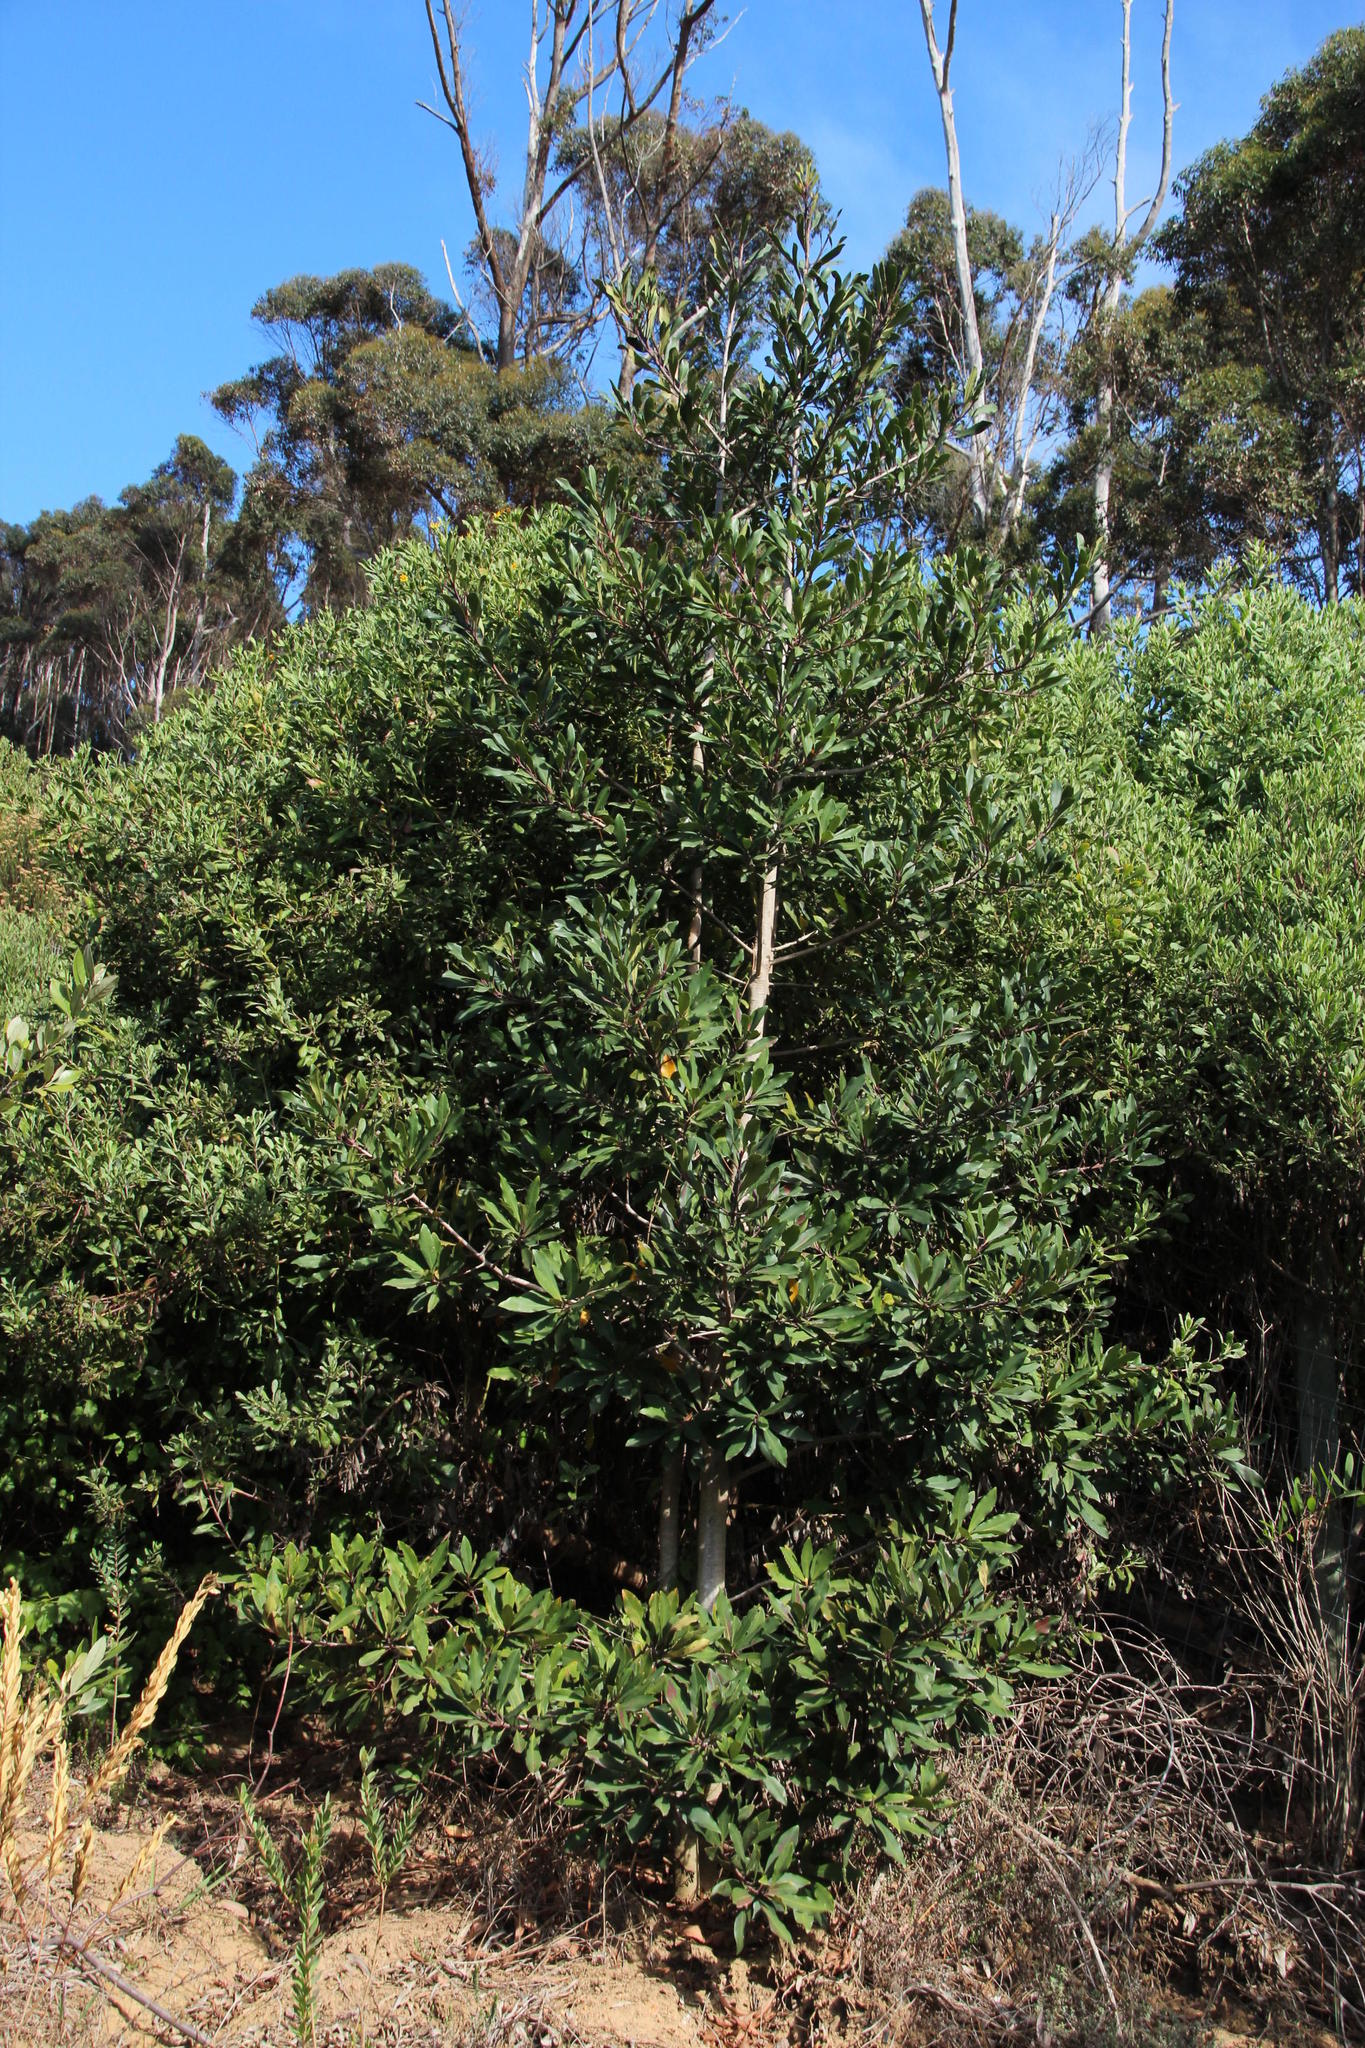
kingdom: Plantae
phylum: Tracheophyta
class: Magnoliopsida
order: Ericales
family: Primulaceae
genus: Myrsine
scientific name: Myrsine melanophloeos
